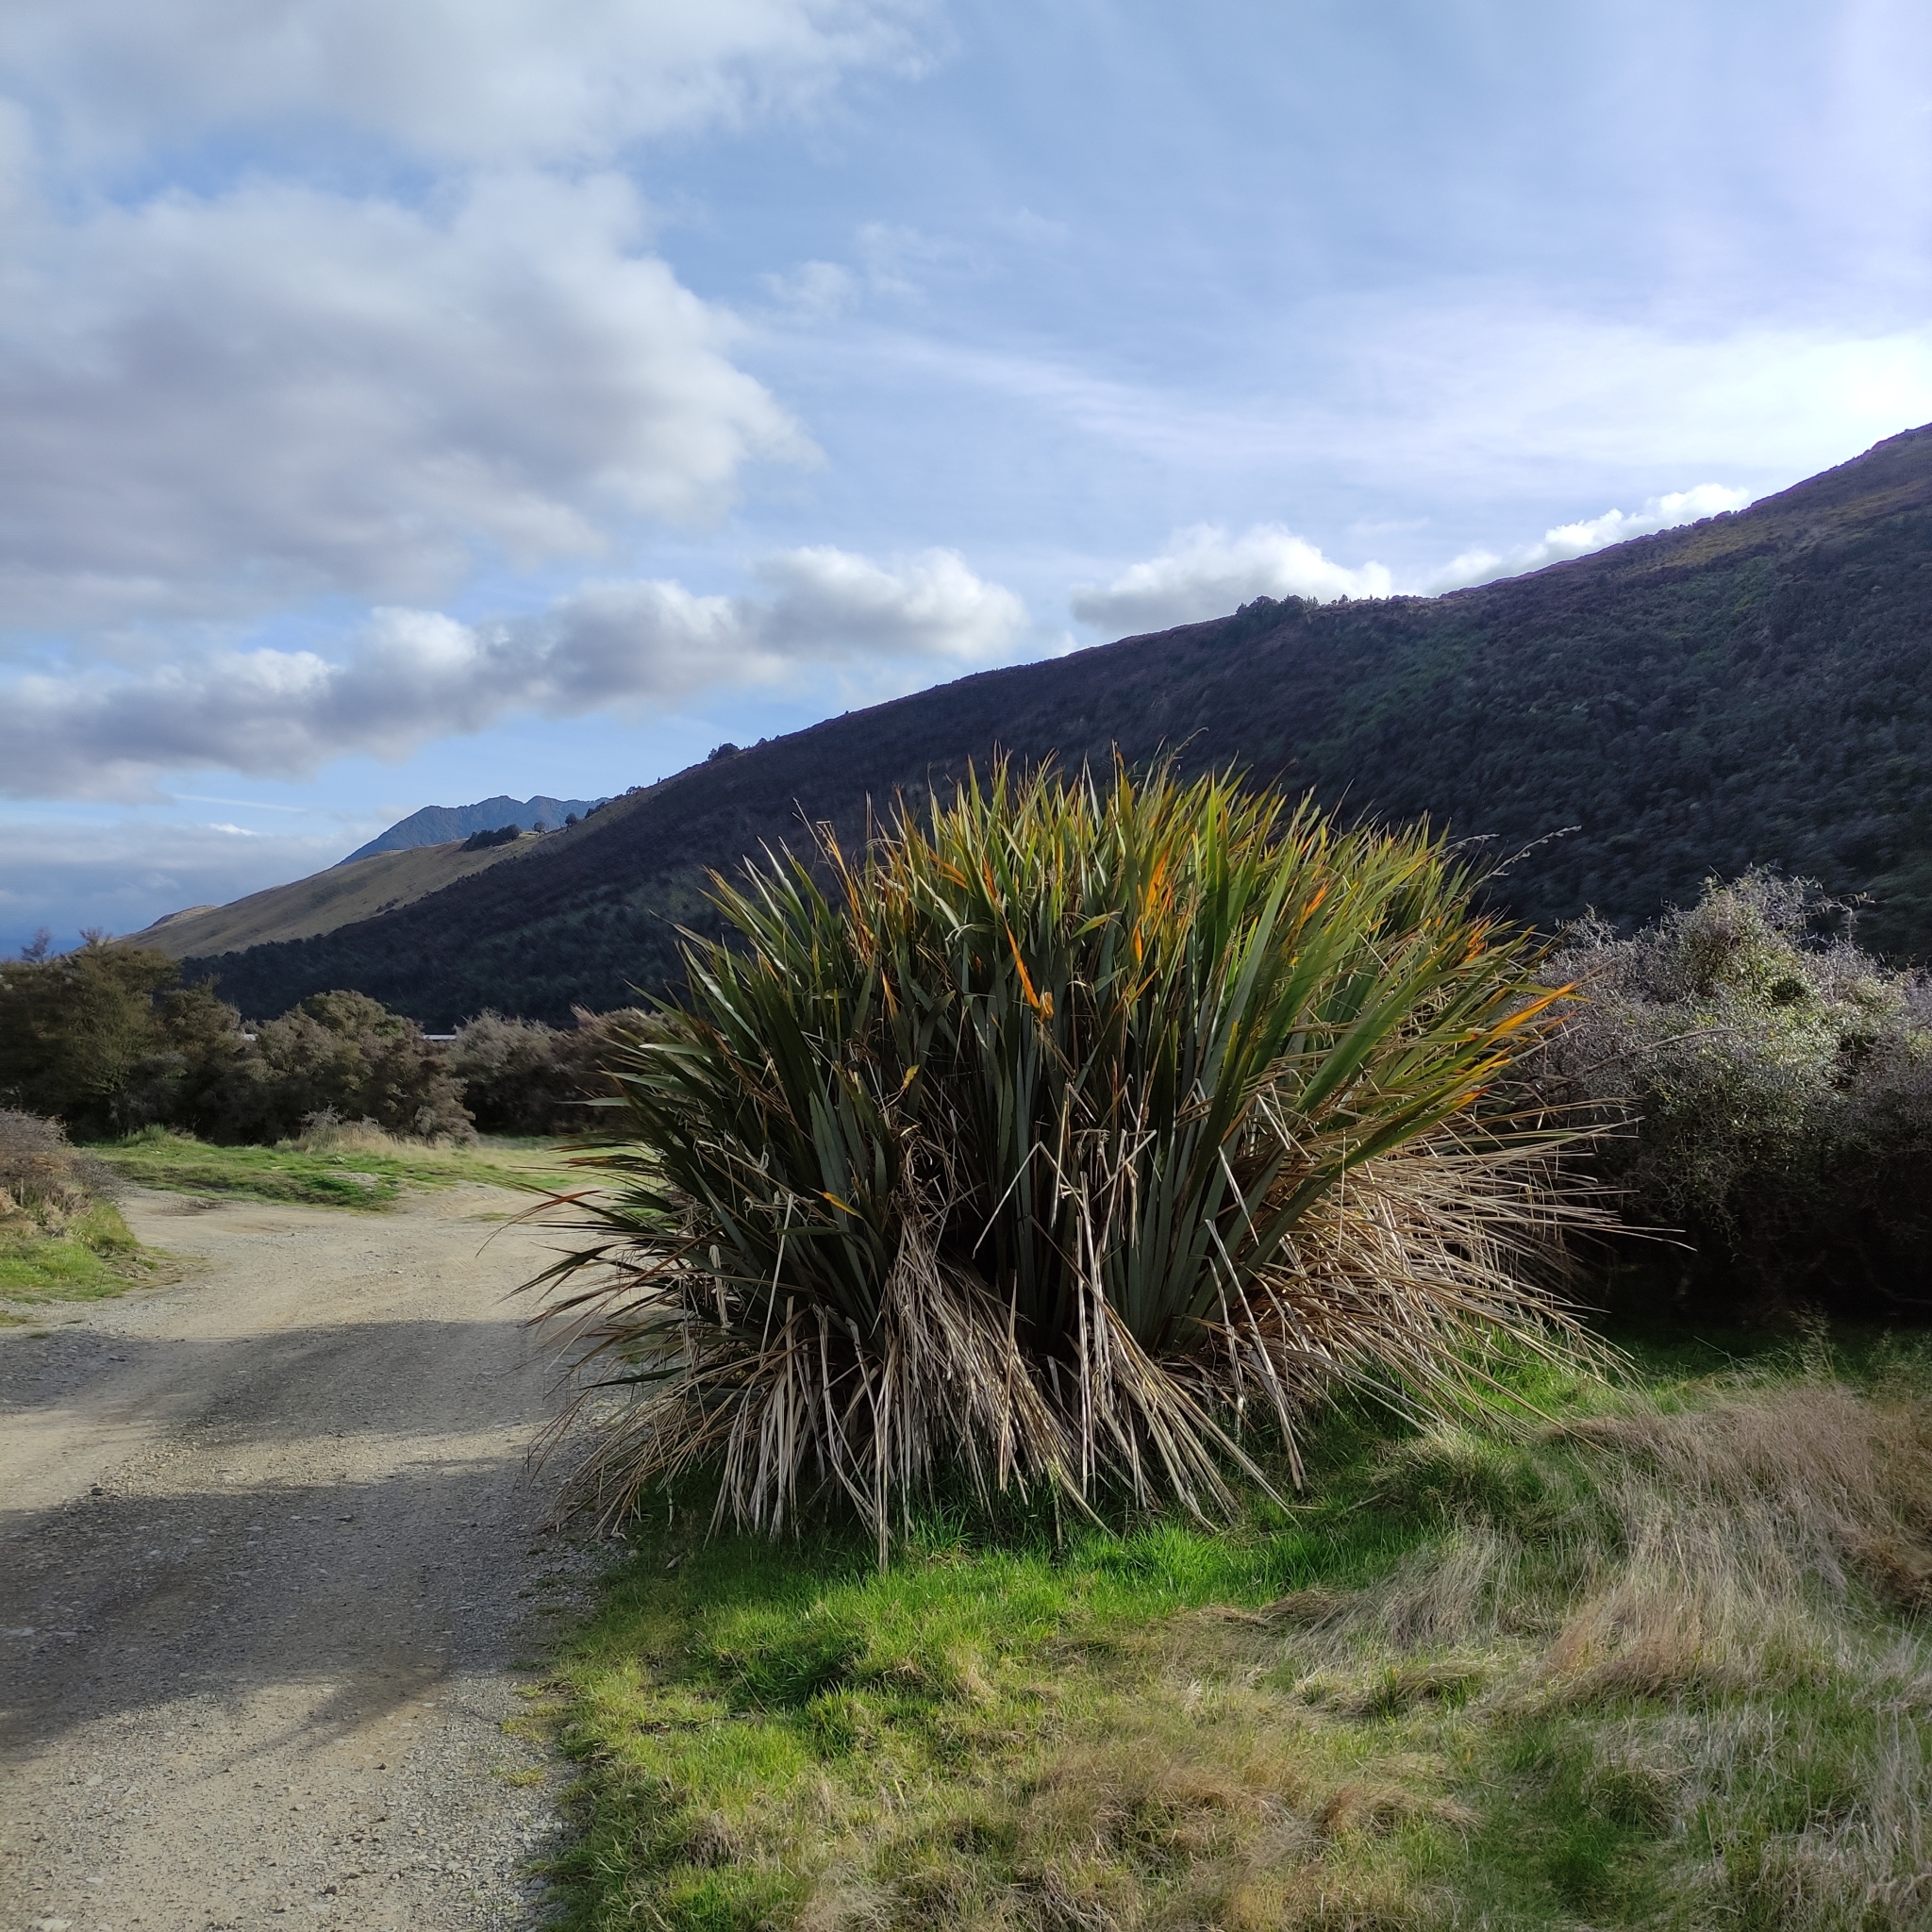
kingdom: Plantae
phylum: Tracheophyta
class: Liliopsida
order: Asparagales
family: Asphodelaceae
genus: Phormium
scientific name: Phormium tenax
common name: New zealand flax
